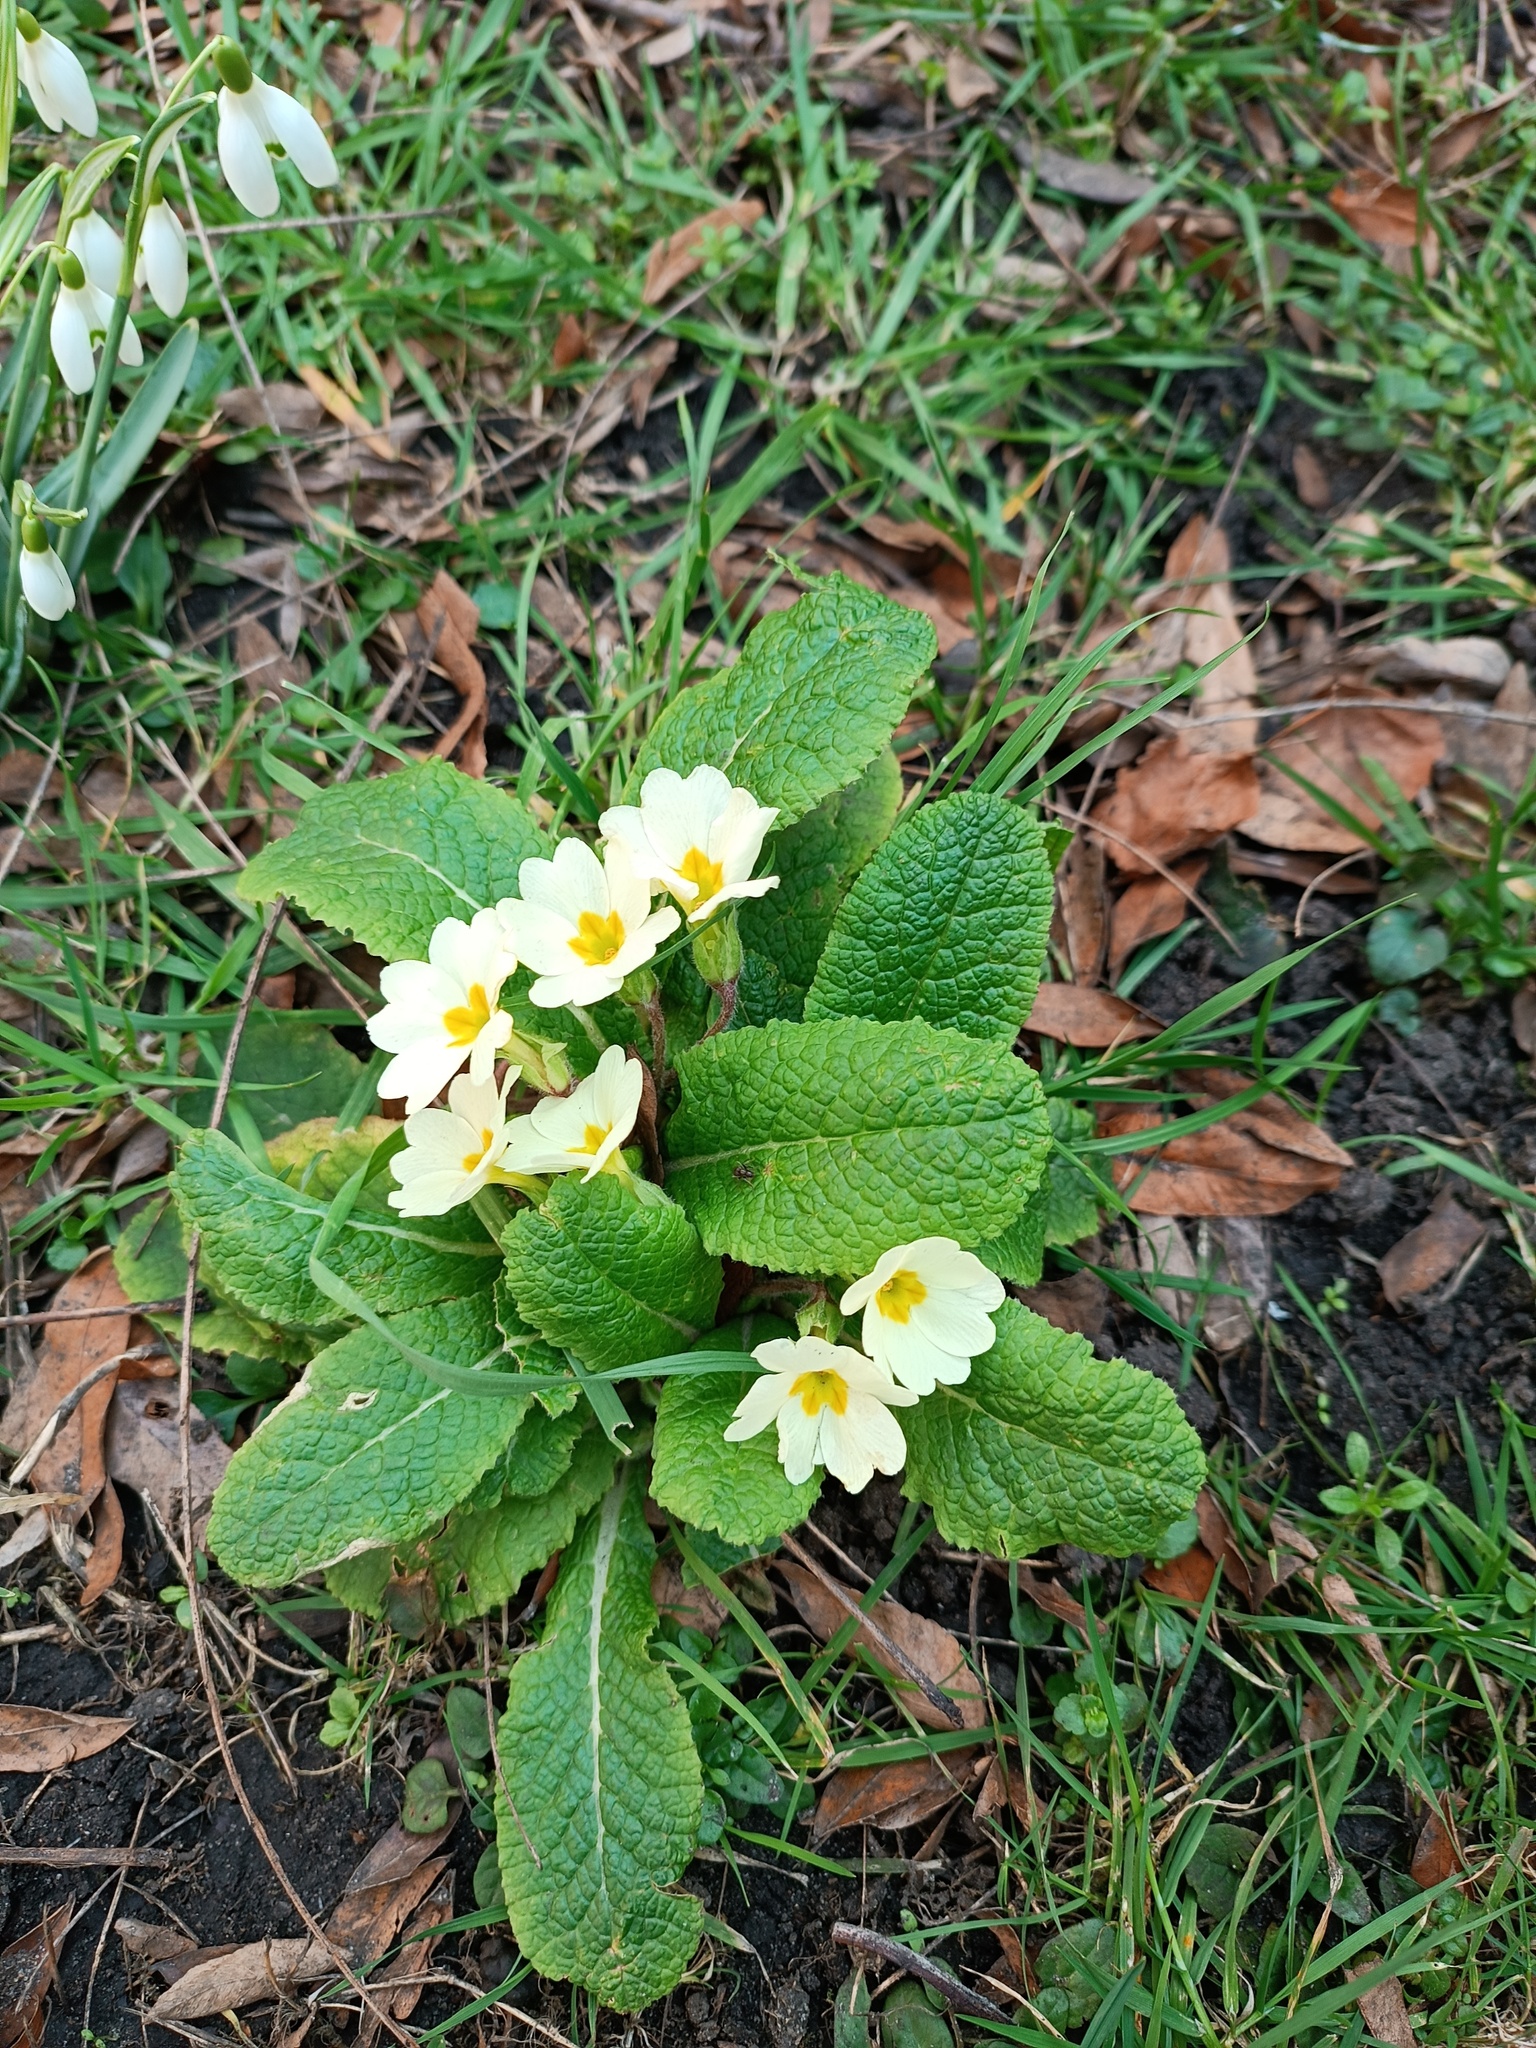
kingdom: Plantae
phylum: Tracheophyta
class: Magnoliopsida
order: Ericales
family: Primulaceae
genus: Primula
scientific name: Primula vulgaris
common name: Primrose
